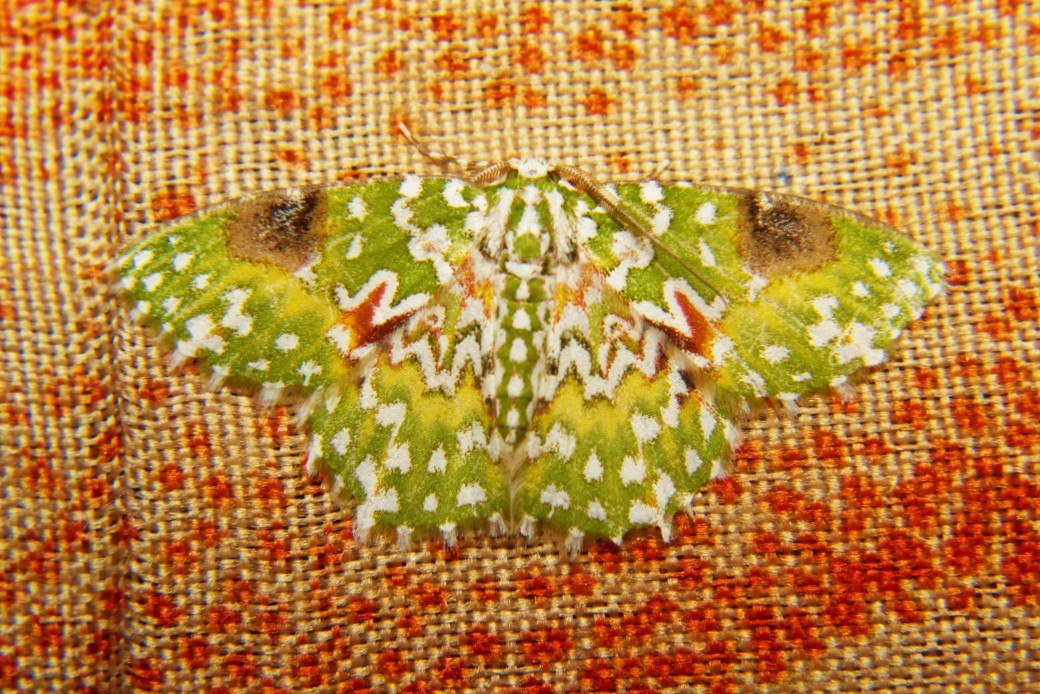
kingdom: Animalia
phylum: Arthropoda
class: Insecta
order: Lepidoptera
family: Geometridae
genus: Eucyclodes
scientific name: Eucyclodes gavissima
